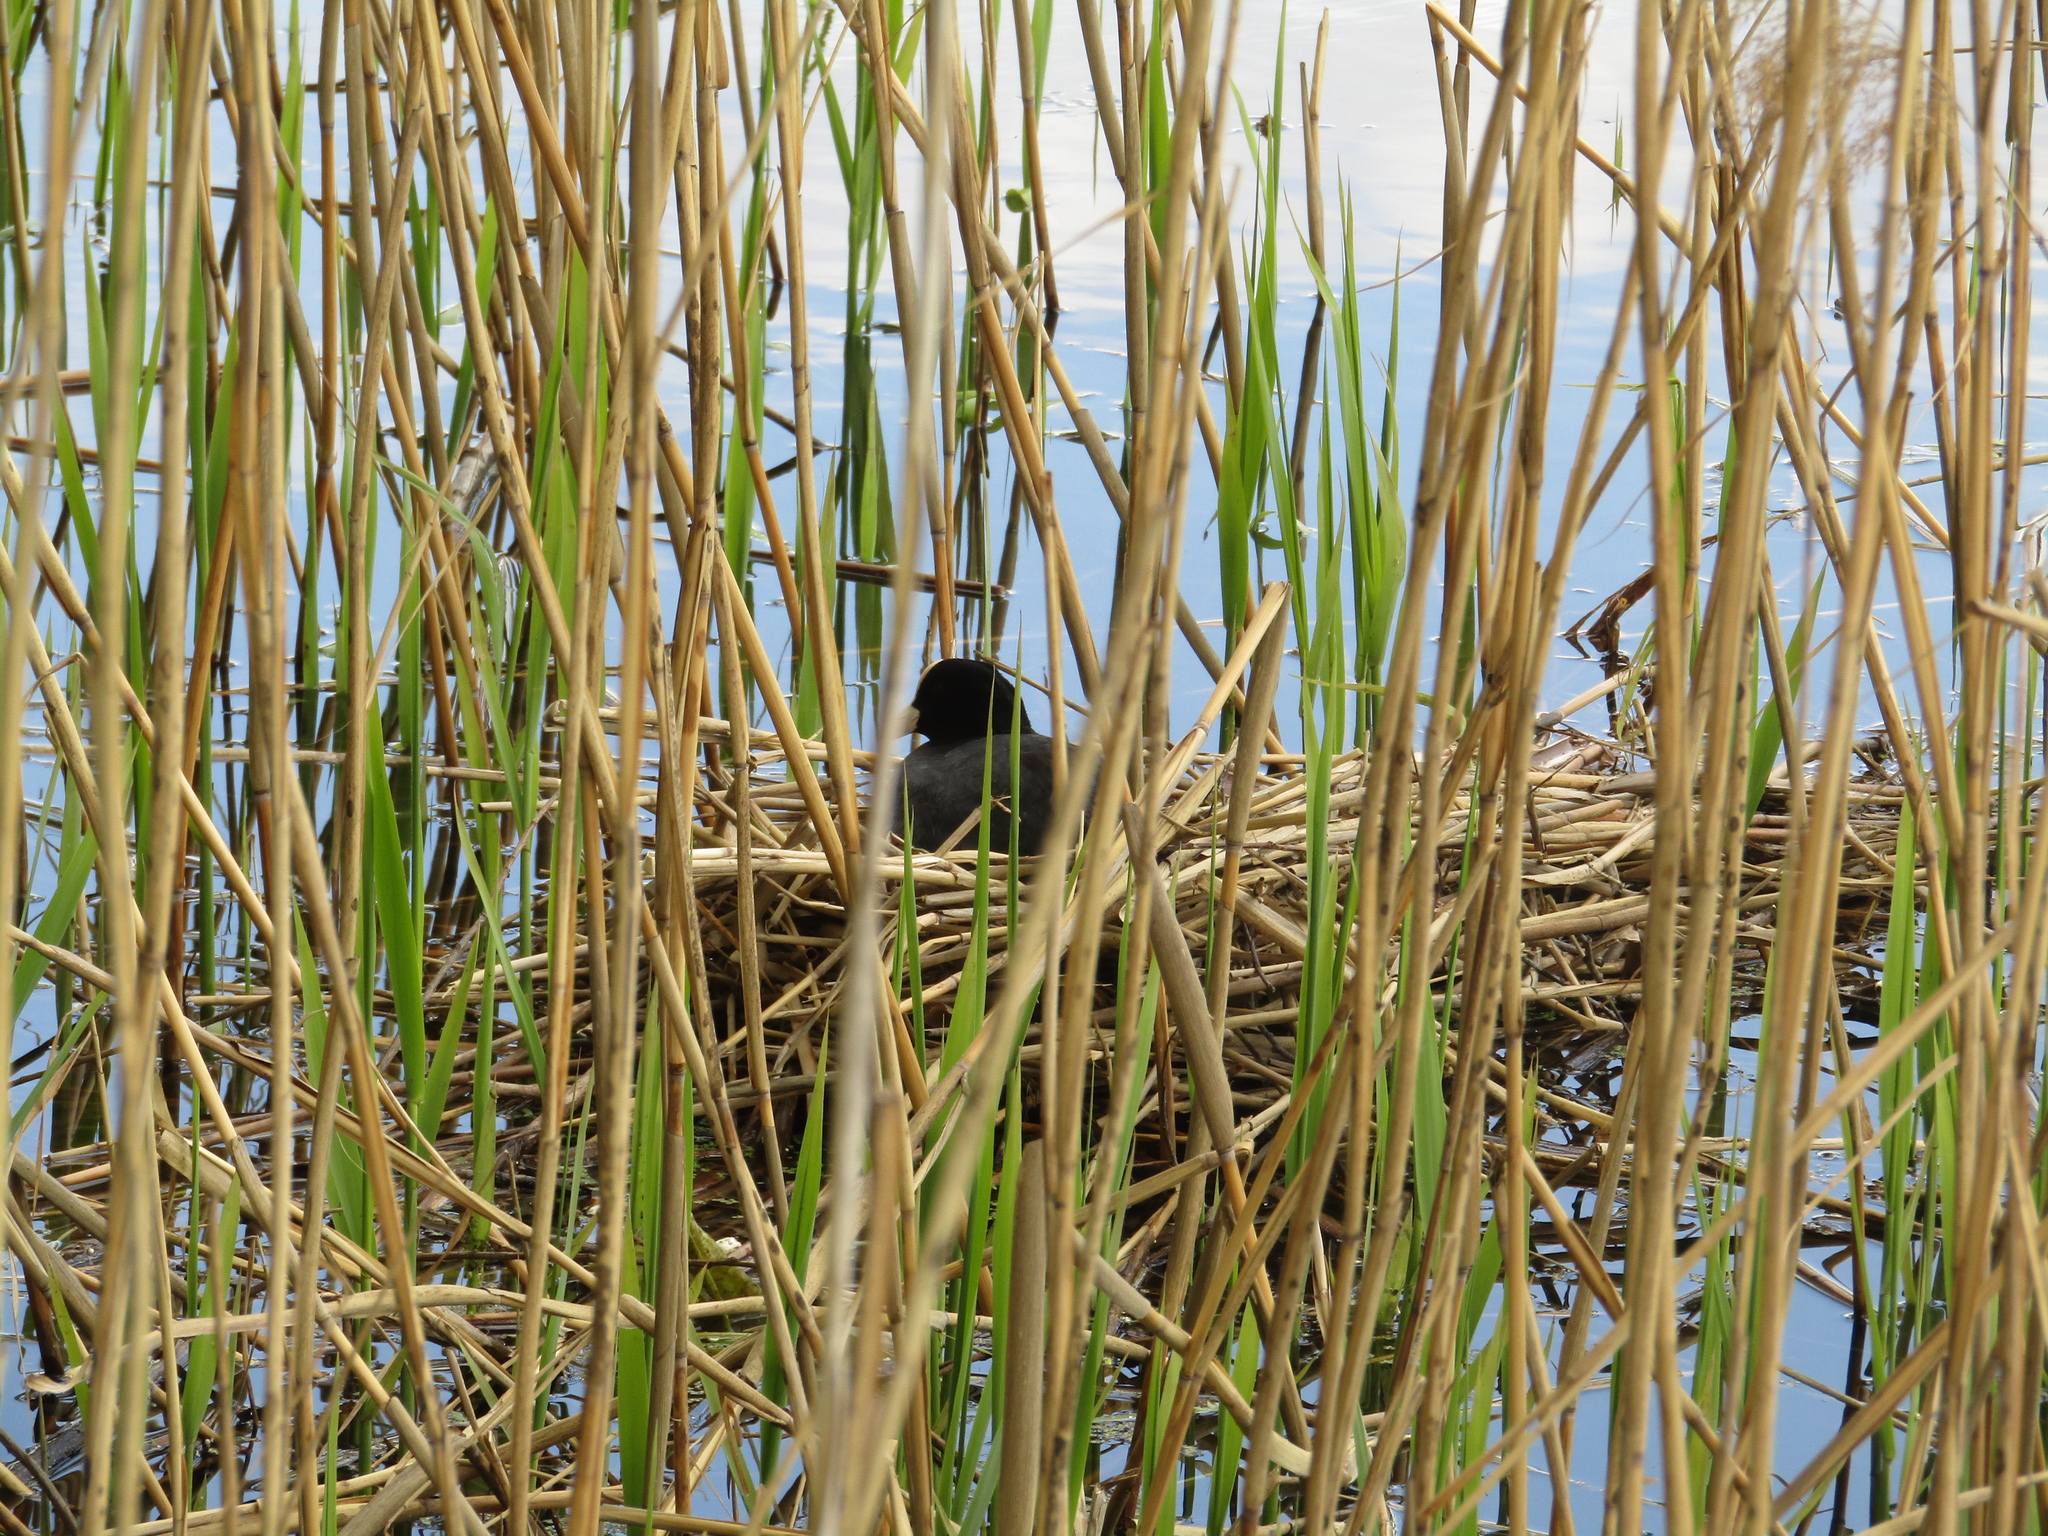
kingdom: Animalia
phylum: Chordata
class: Aves
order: Gruiformes
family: Rallidae
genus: Fulica
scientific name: Fulica atra
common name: Eurasian coot
